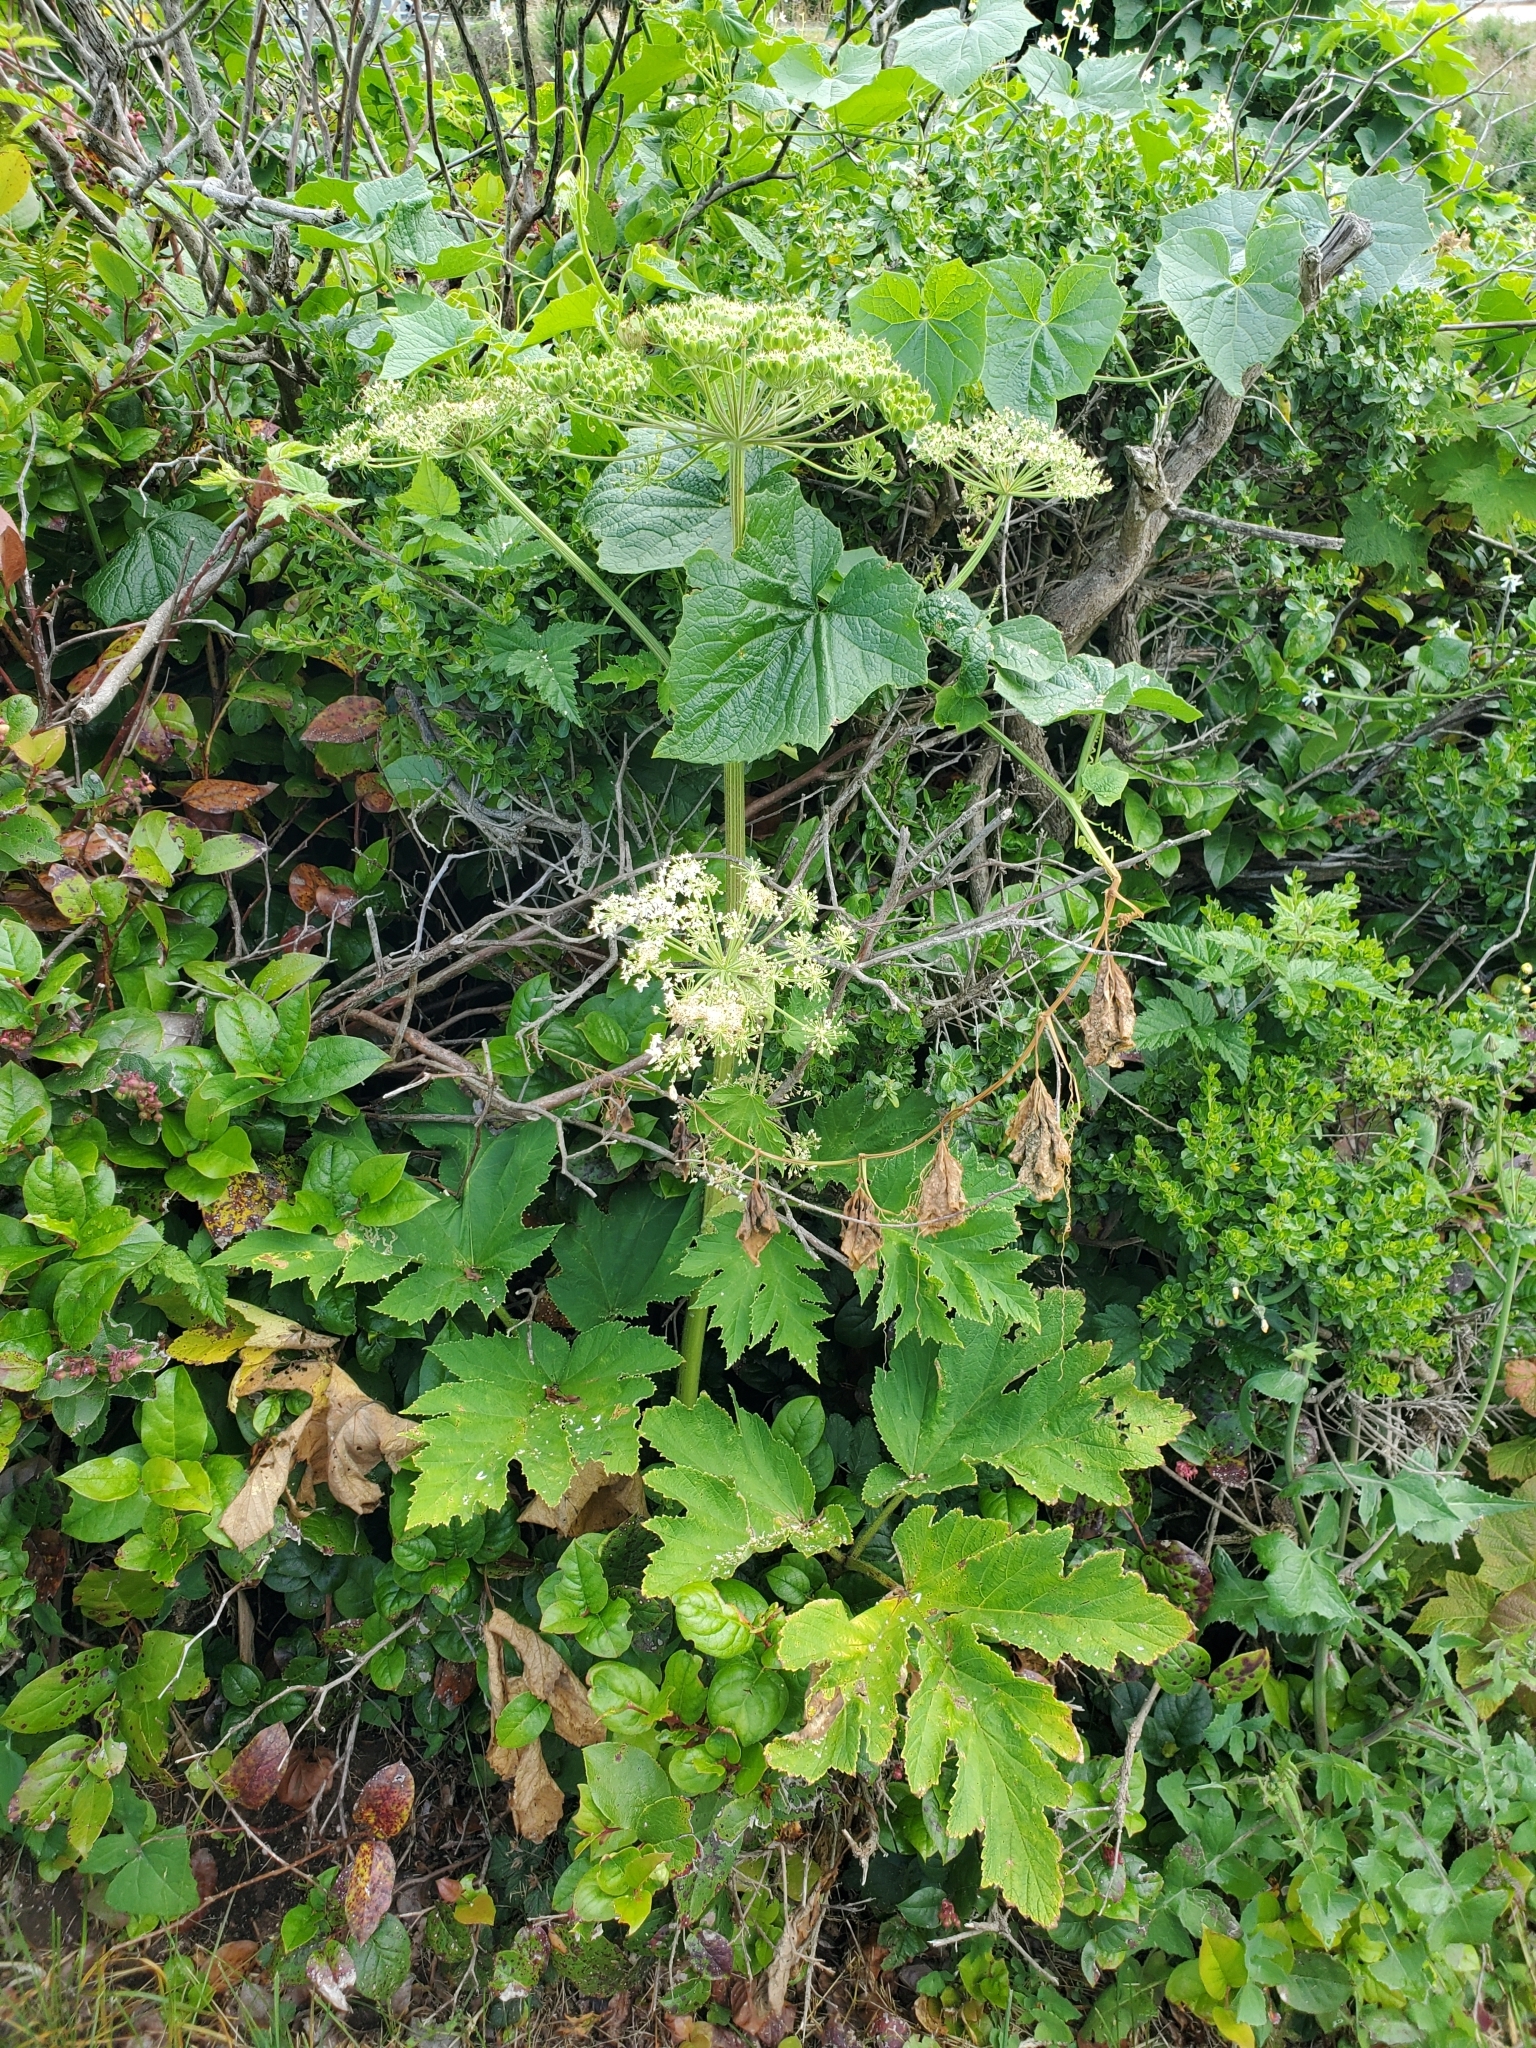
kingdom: Plantae
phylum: Tracheophyta
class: Magnoliopsida
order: Apiales
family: Apiaceae
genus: Heracleum
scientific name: Heracleum maximum
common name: American cow parsnip
